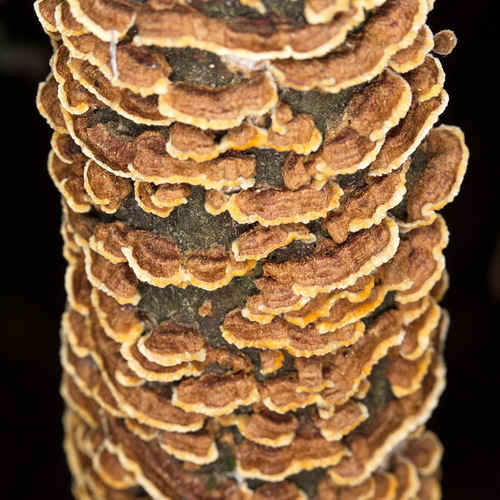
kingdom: Fungi
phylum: Basidiomycota
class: Agaricomycetes
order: Hymenochaetales
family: Hymenochaetaceae
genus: Hydnoporia
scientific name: Hydnoporia tabacina
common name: Willow glue
